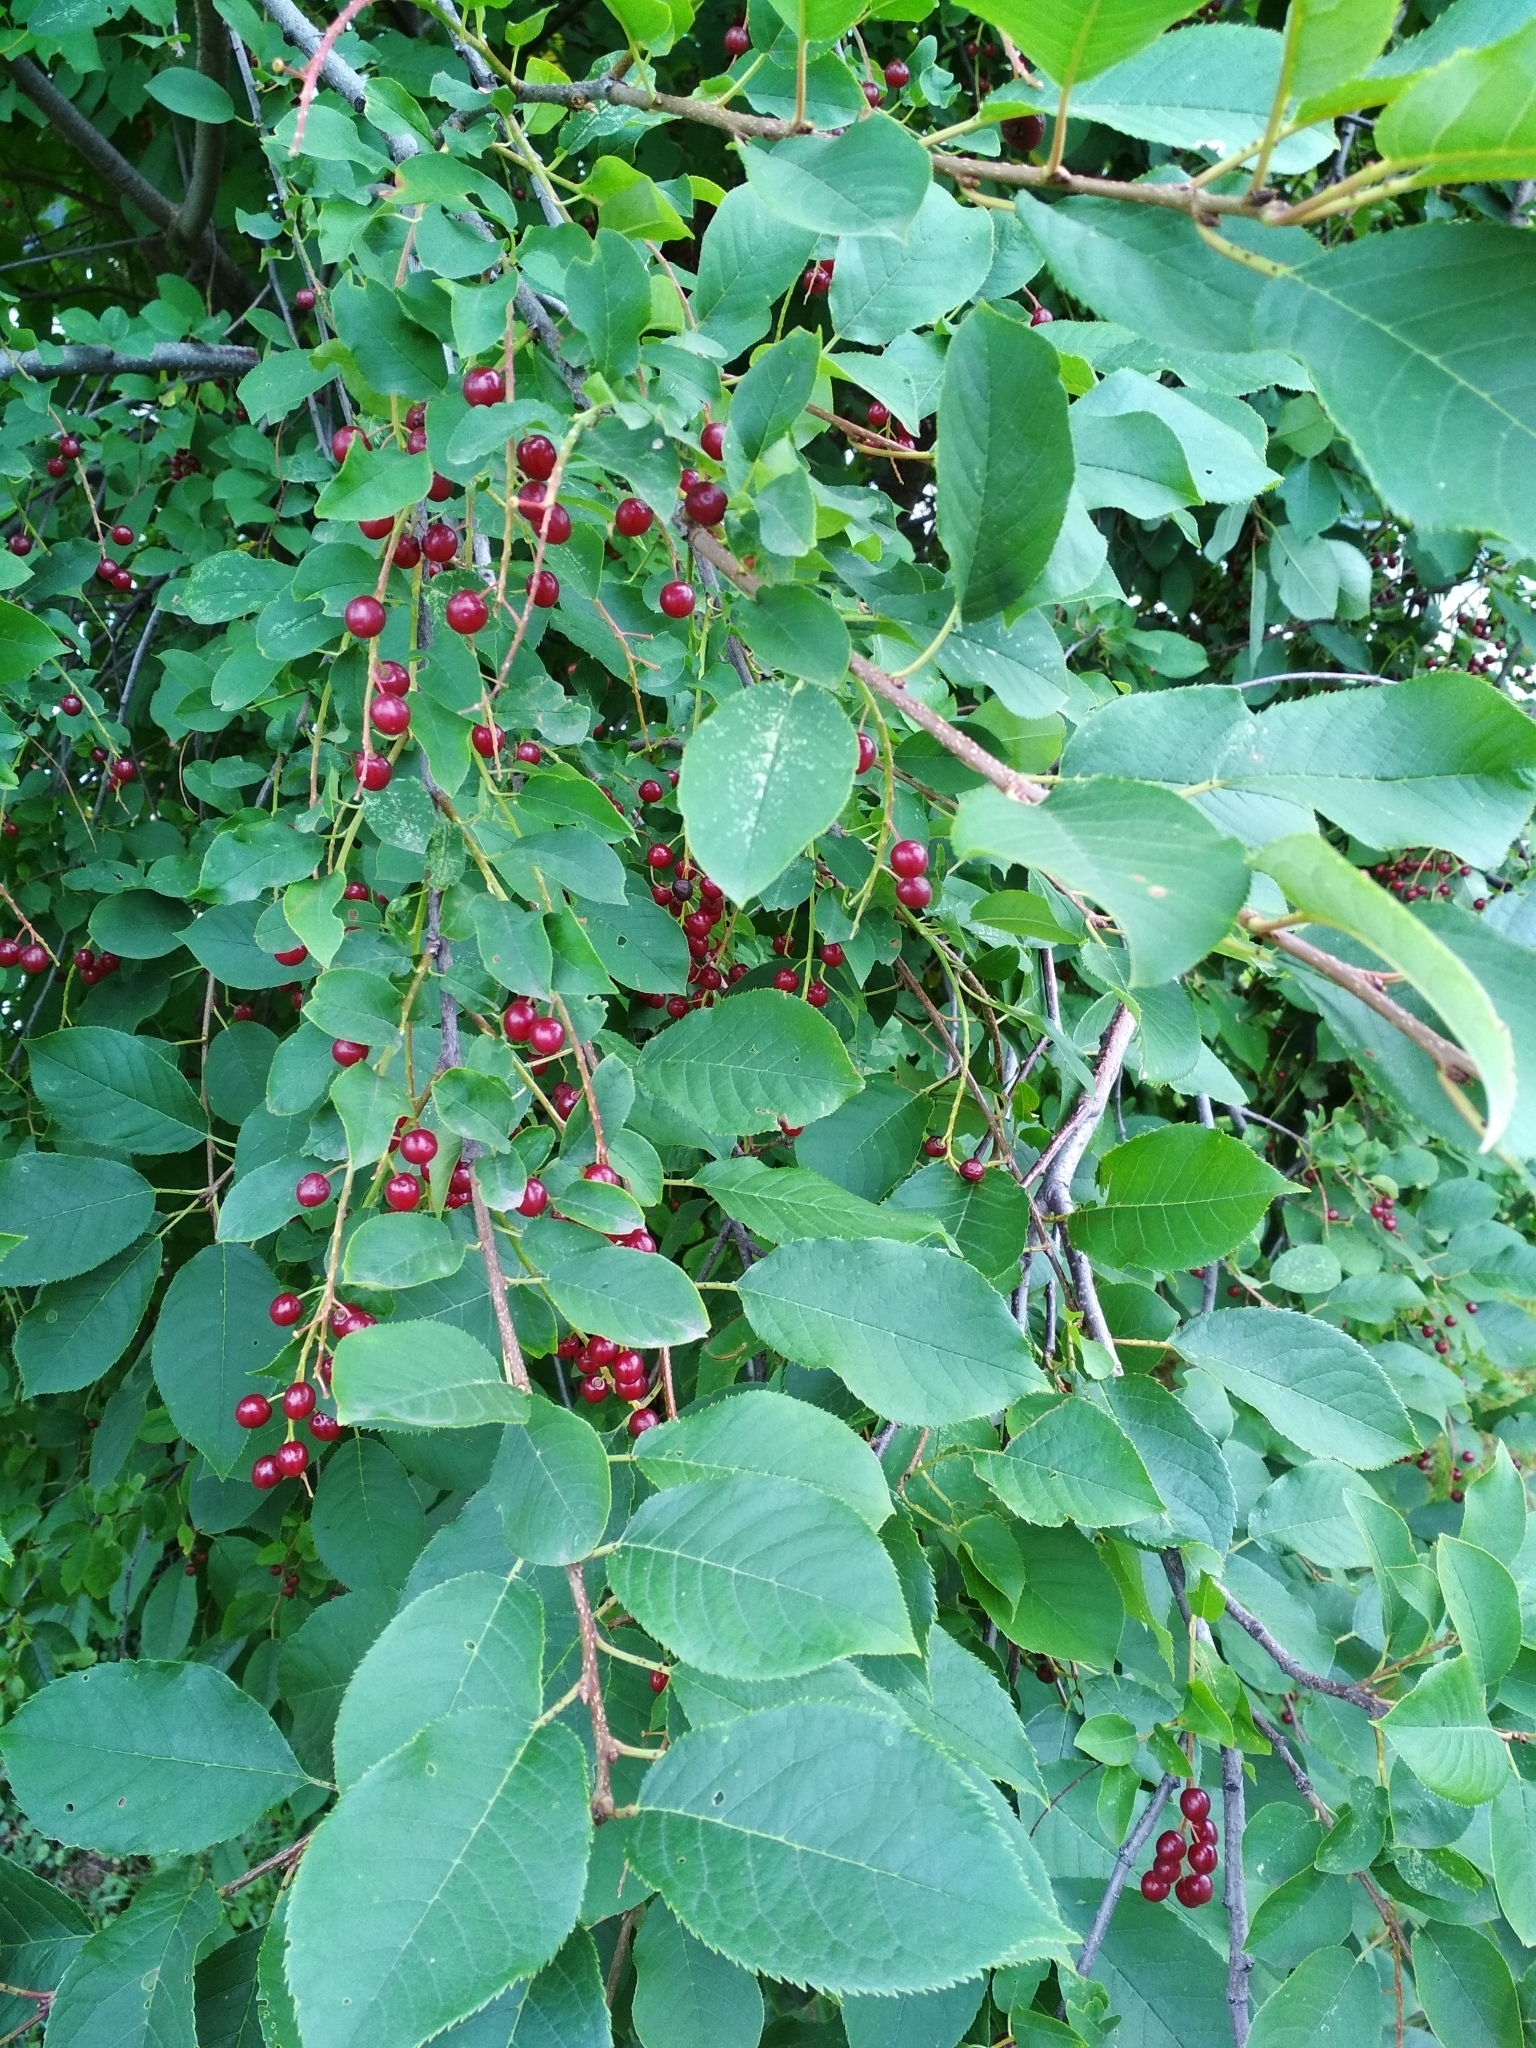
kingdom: Plantae
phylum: Tracheophyta
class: Magnoliopsida
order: Rosales
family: Rosaceae
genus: Prunus
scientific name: Prunus virginiana
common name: Chokecherry
